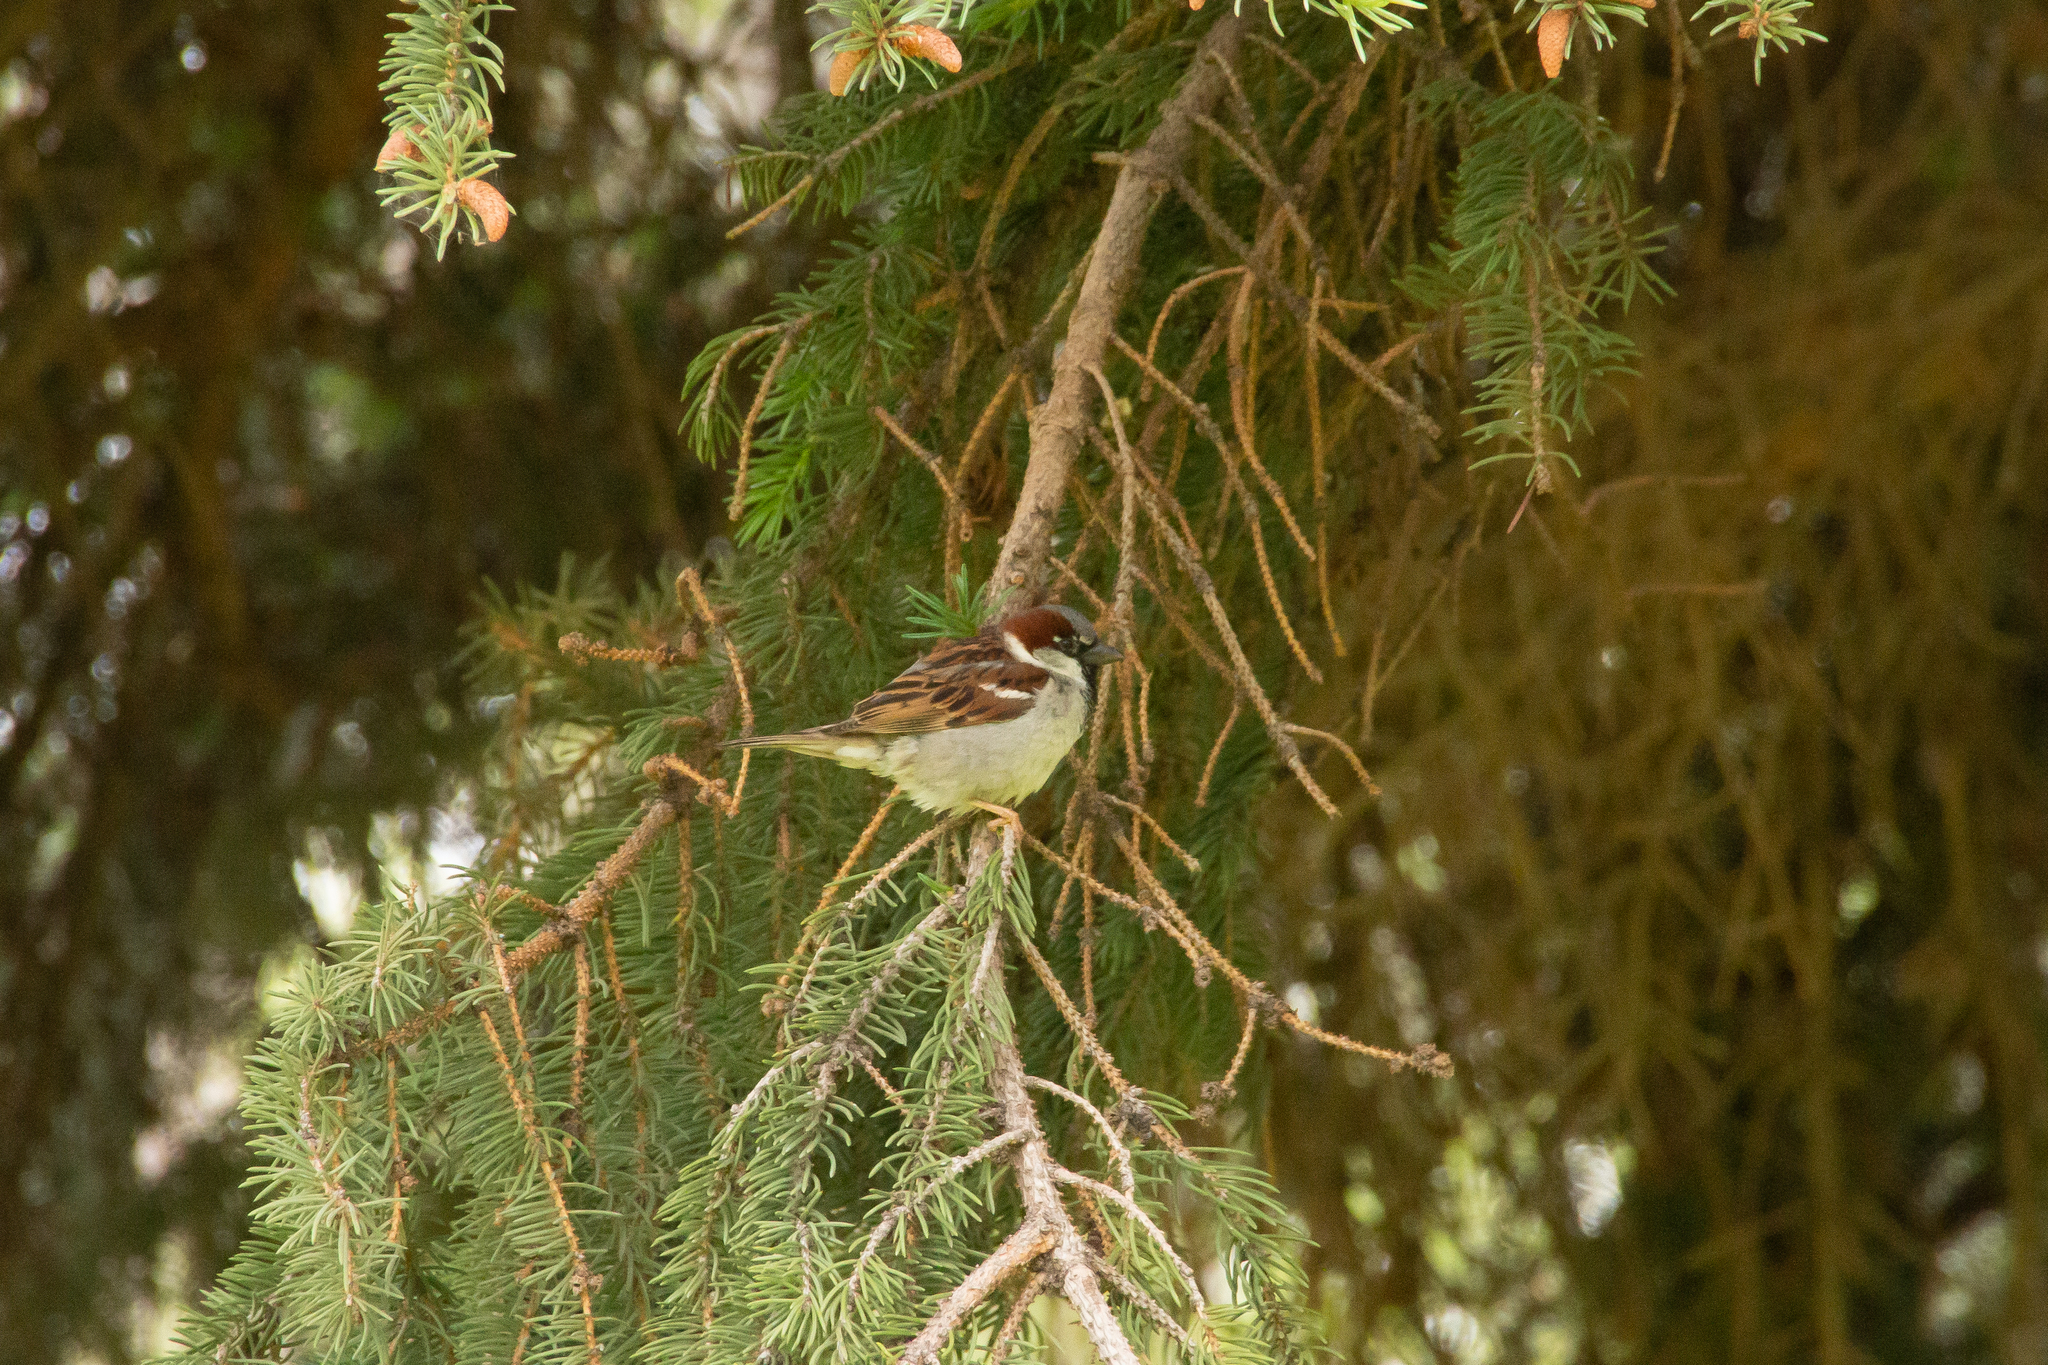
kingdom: Animalia
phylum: Chordata
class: Aves
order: Passeriformes
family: Passeridae
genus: Passer
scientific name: Passer domesticus
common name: House sparrow
